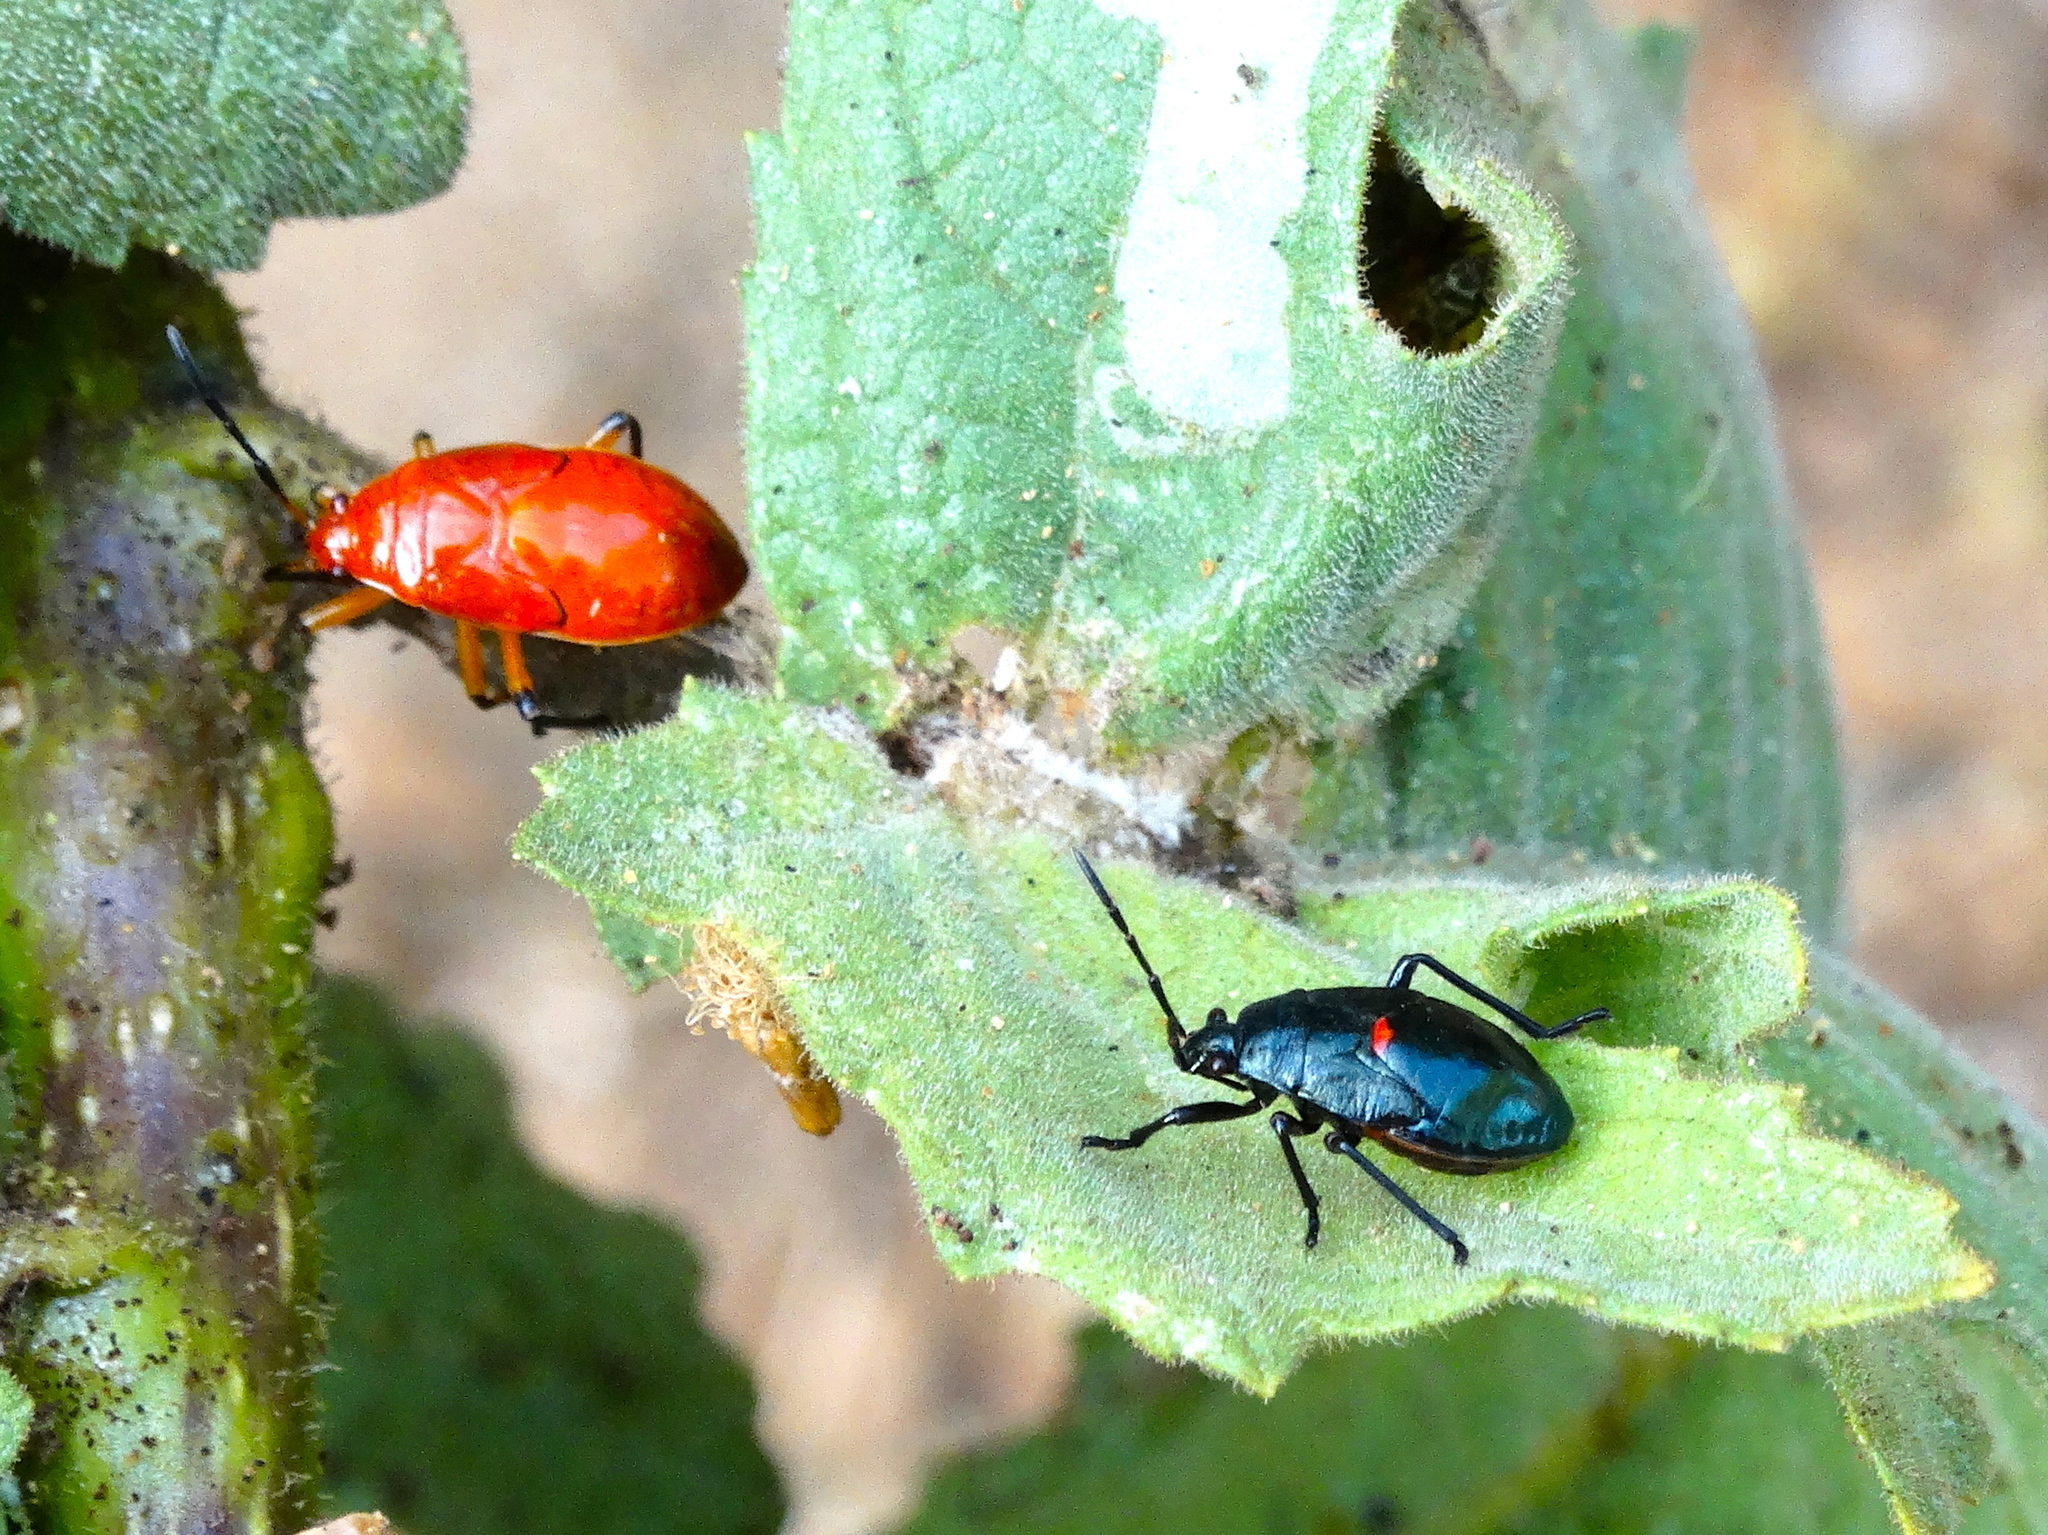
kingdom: Animalia
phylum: Arthropoda
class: Insecta
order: Hemiptera
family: Largidae
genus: Largus
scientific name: Largus
